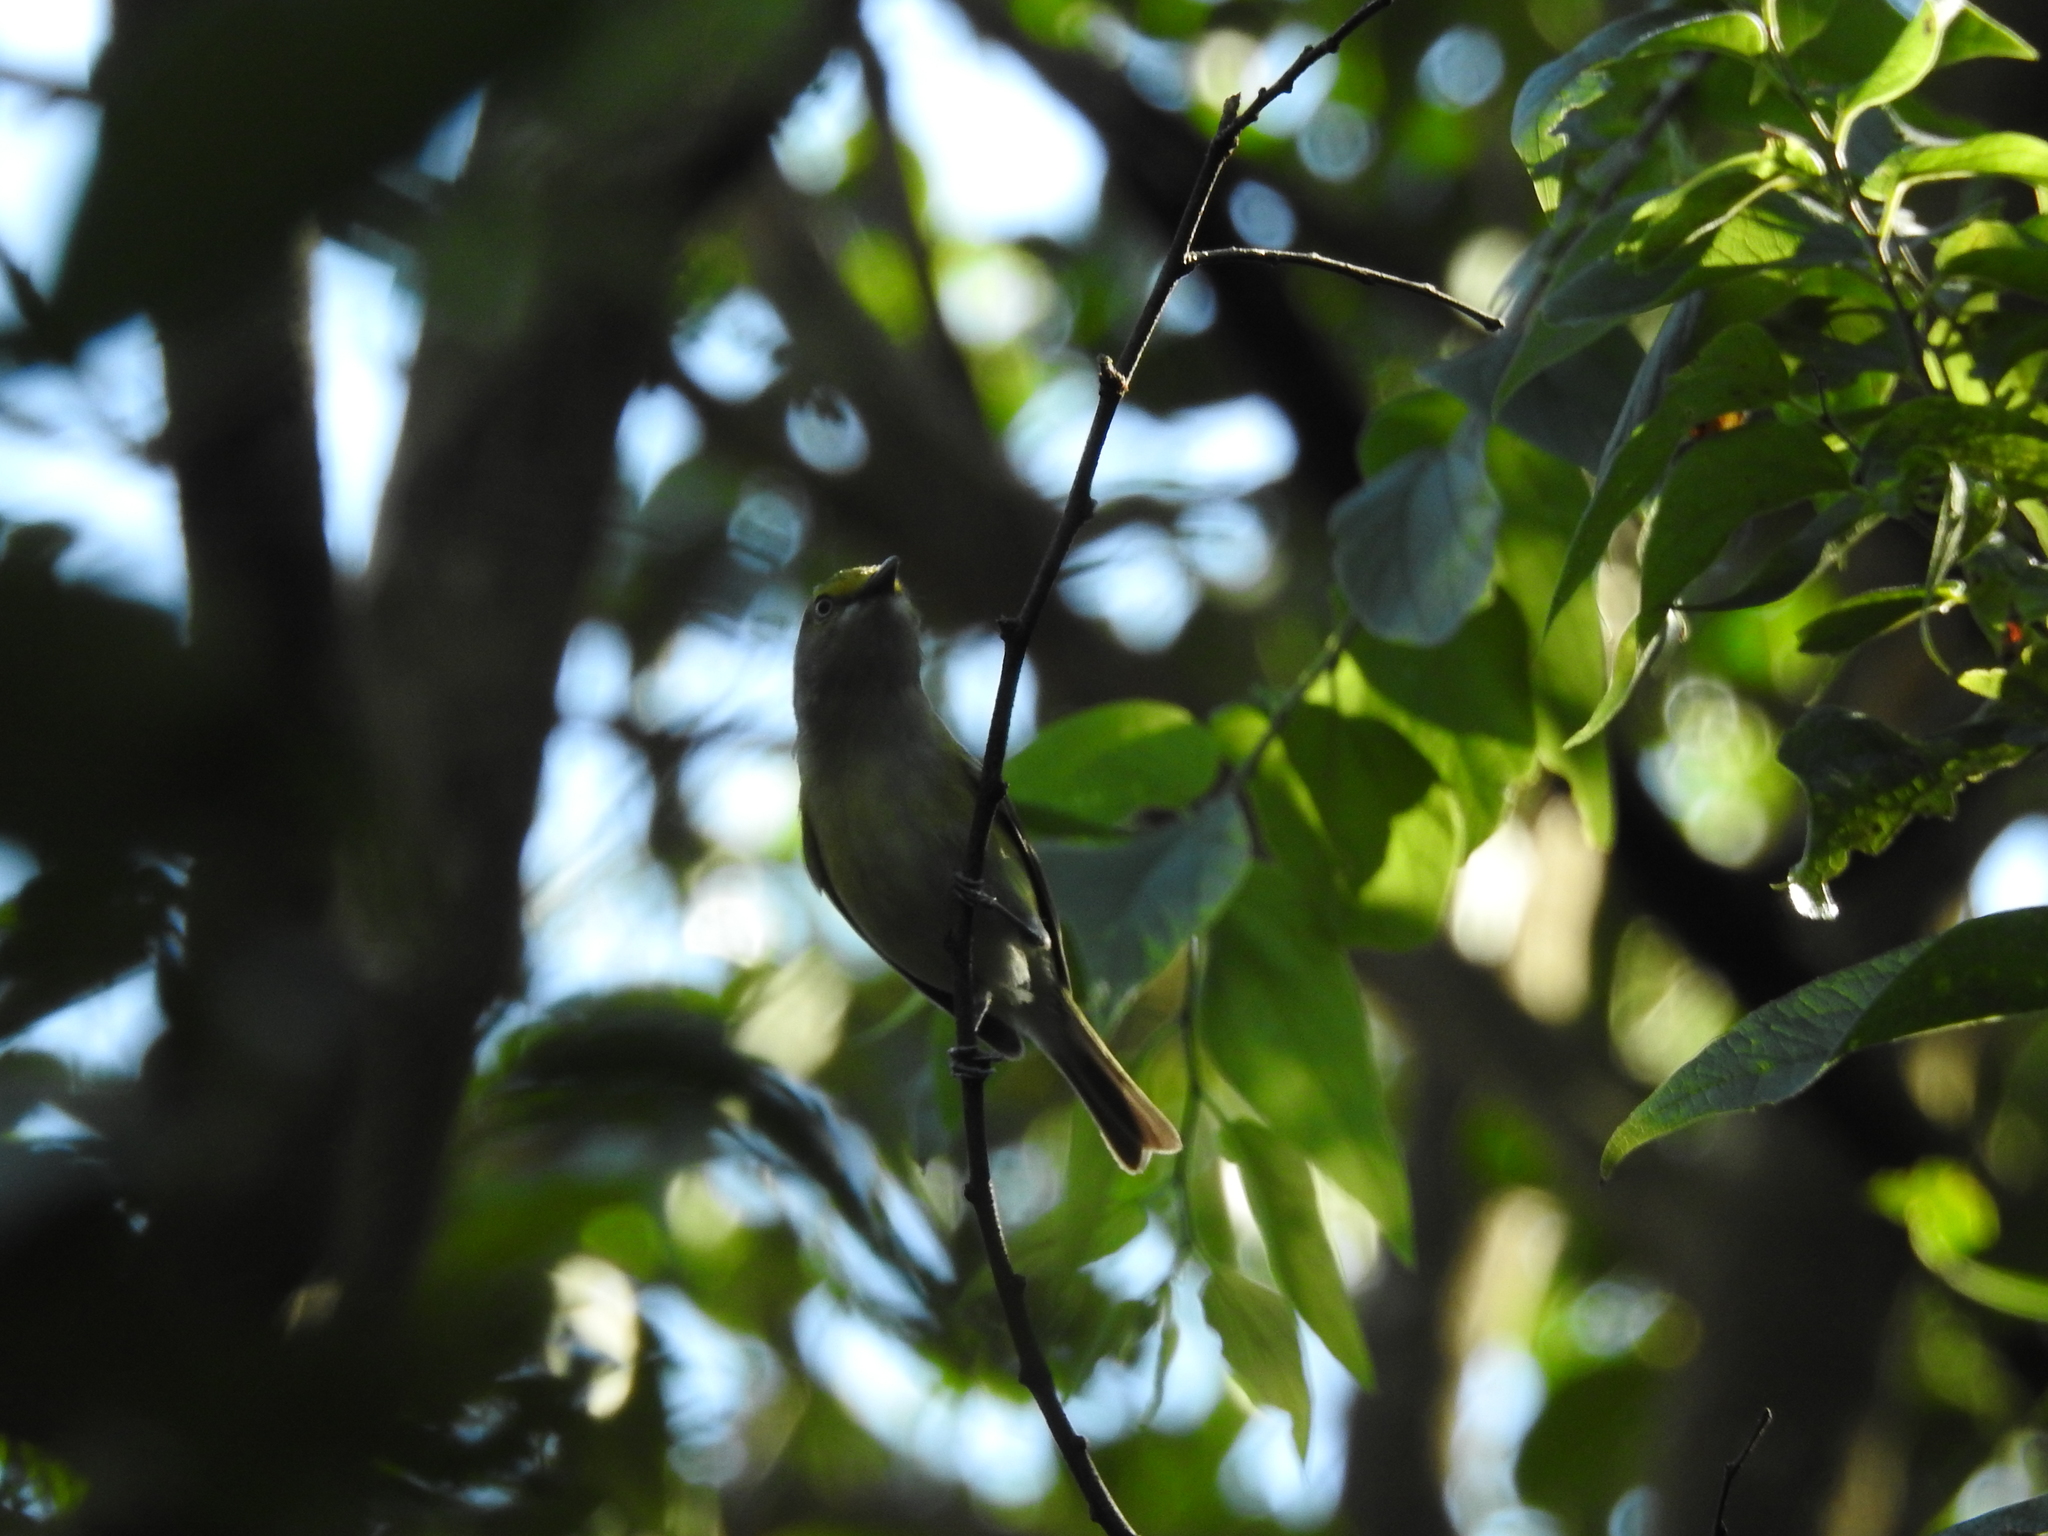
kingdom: Animalia
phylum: Chordata
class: Aves
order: Passeriformes
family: Vireonidae
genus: Vireo
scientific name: Vireo griseus
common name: White-eyed vireo
